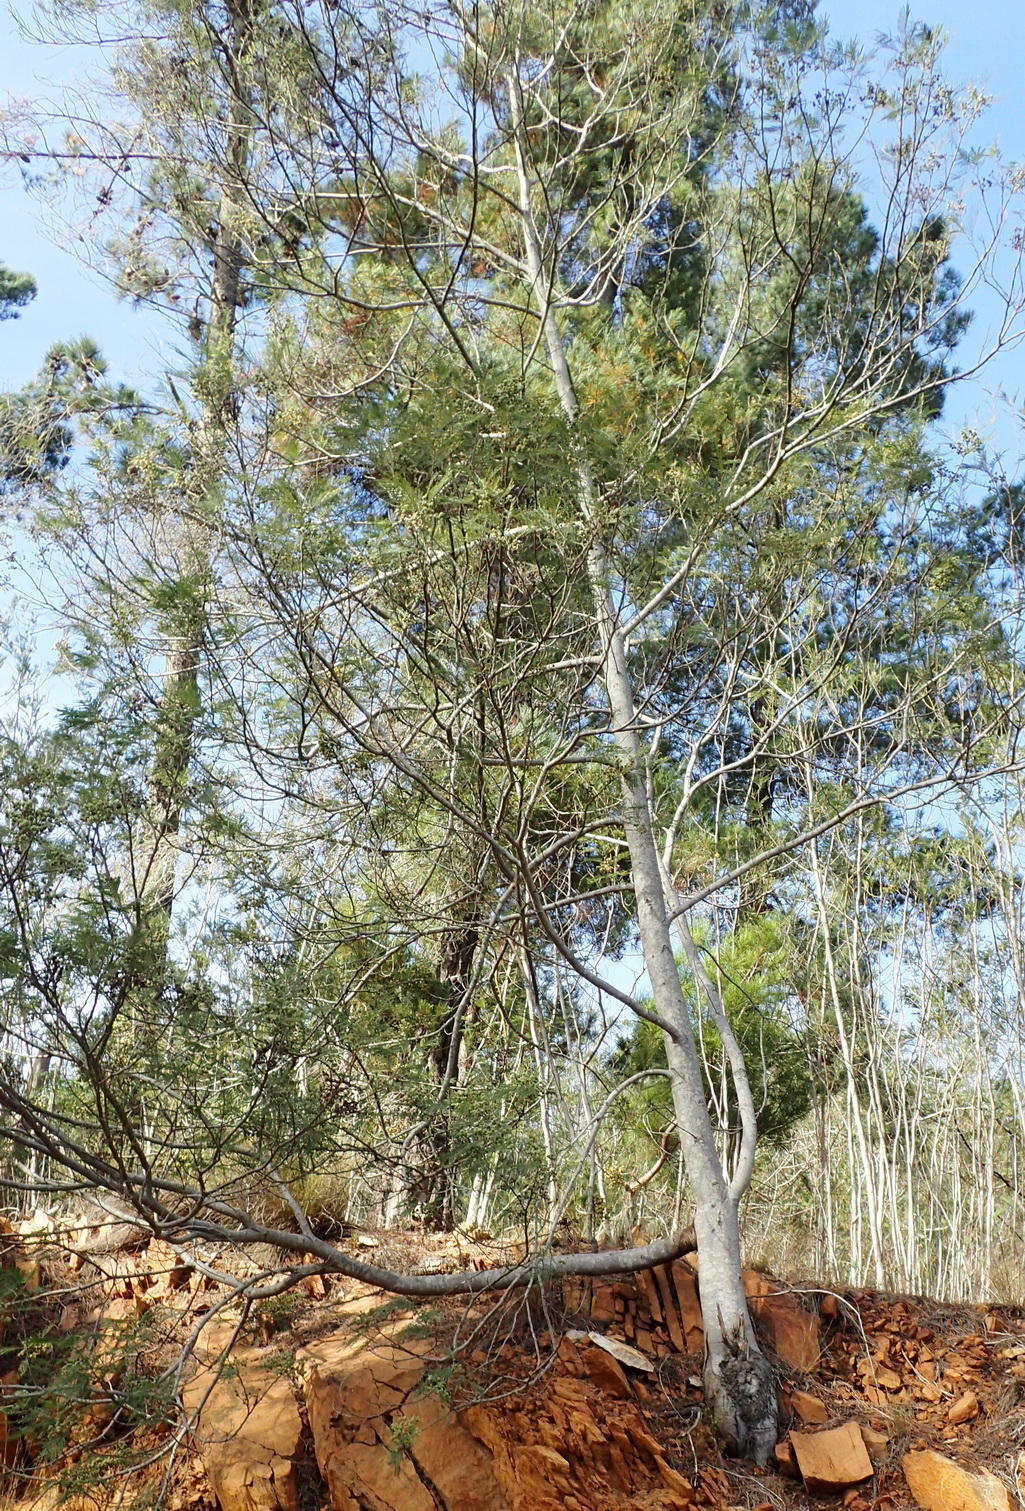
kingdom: Plantae
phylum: Tracheophyta
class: Magnoliopsida
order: Fabales
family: Fabaceae
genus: Acacia
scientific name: Acacia mearnsii
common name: Black wattle
